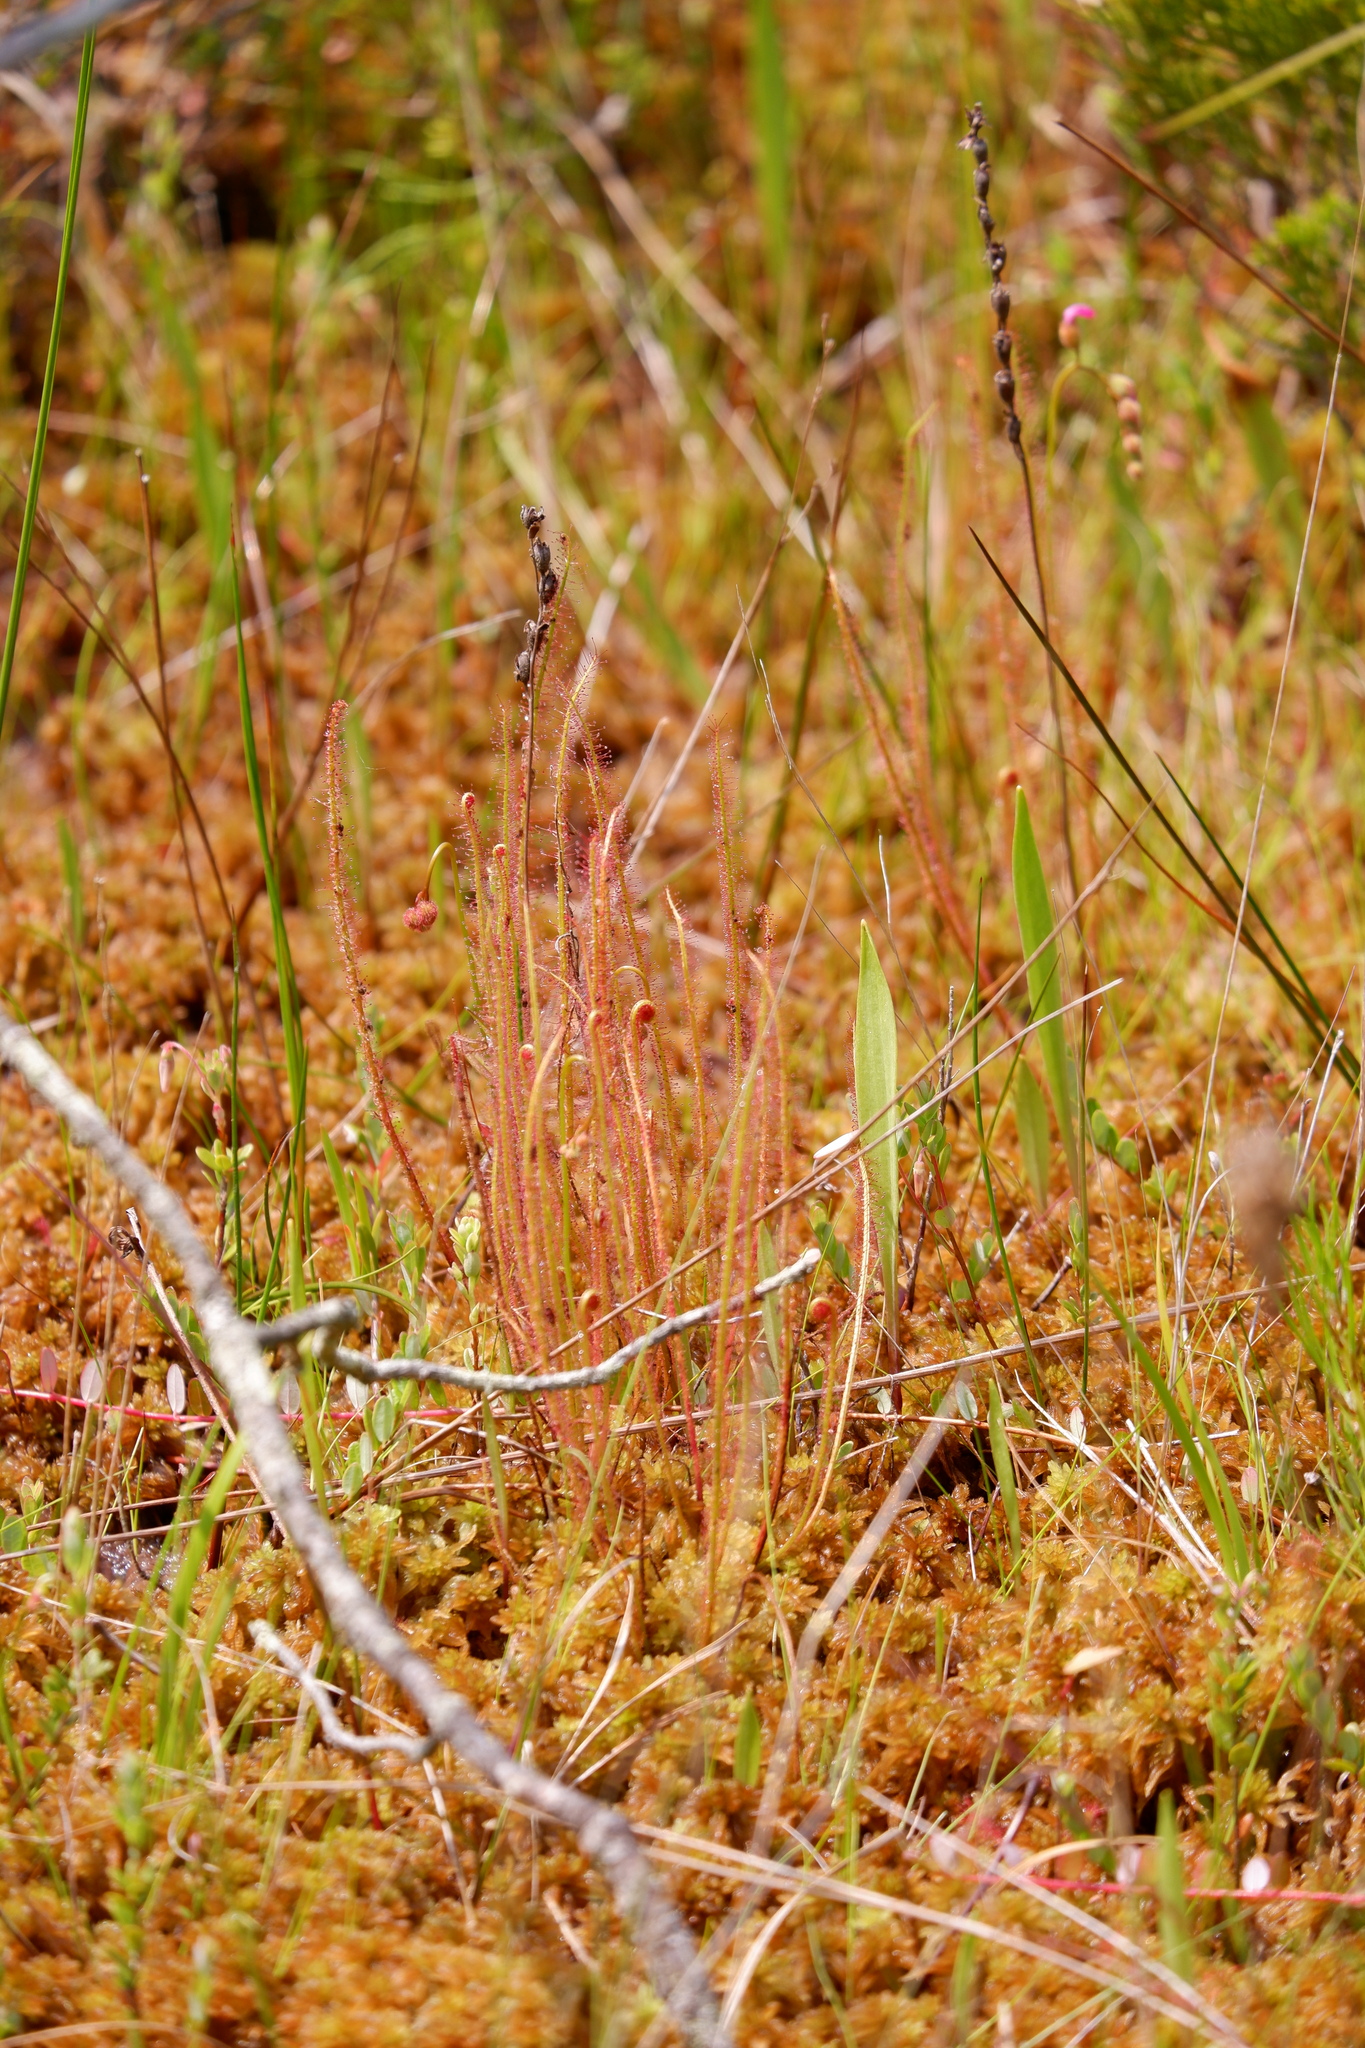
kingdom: Plantae
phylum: Tracheophyta
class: Magnoliopsida
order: Caryophyllales
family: Droseraceae
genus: Drosera
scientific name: Drosera filiformis
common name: Dew-thread
